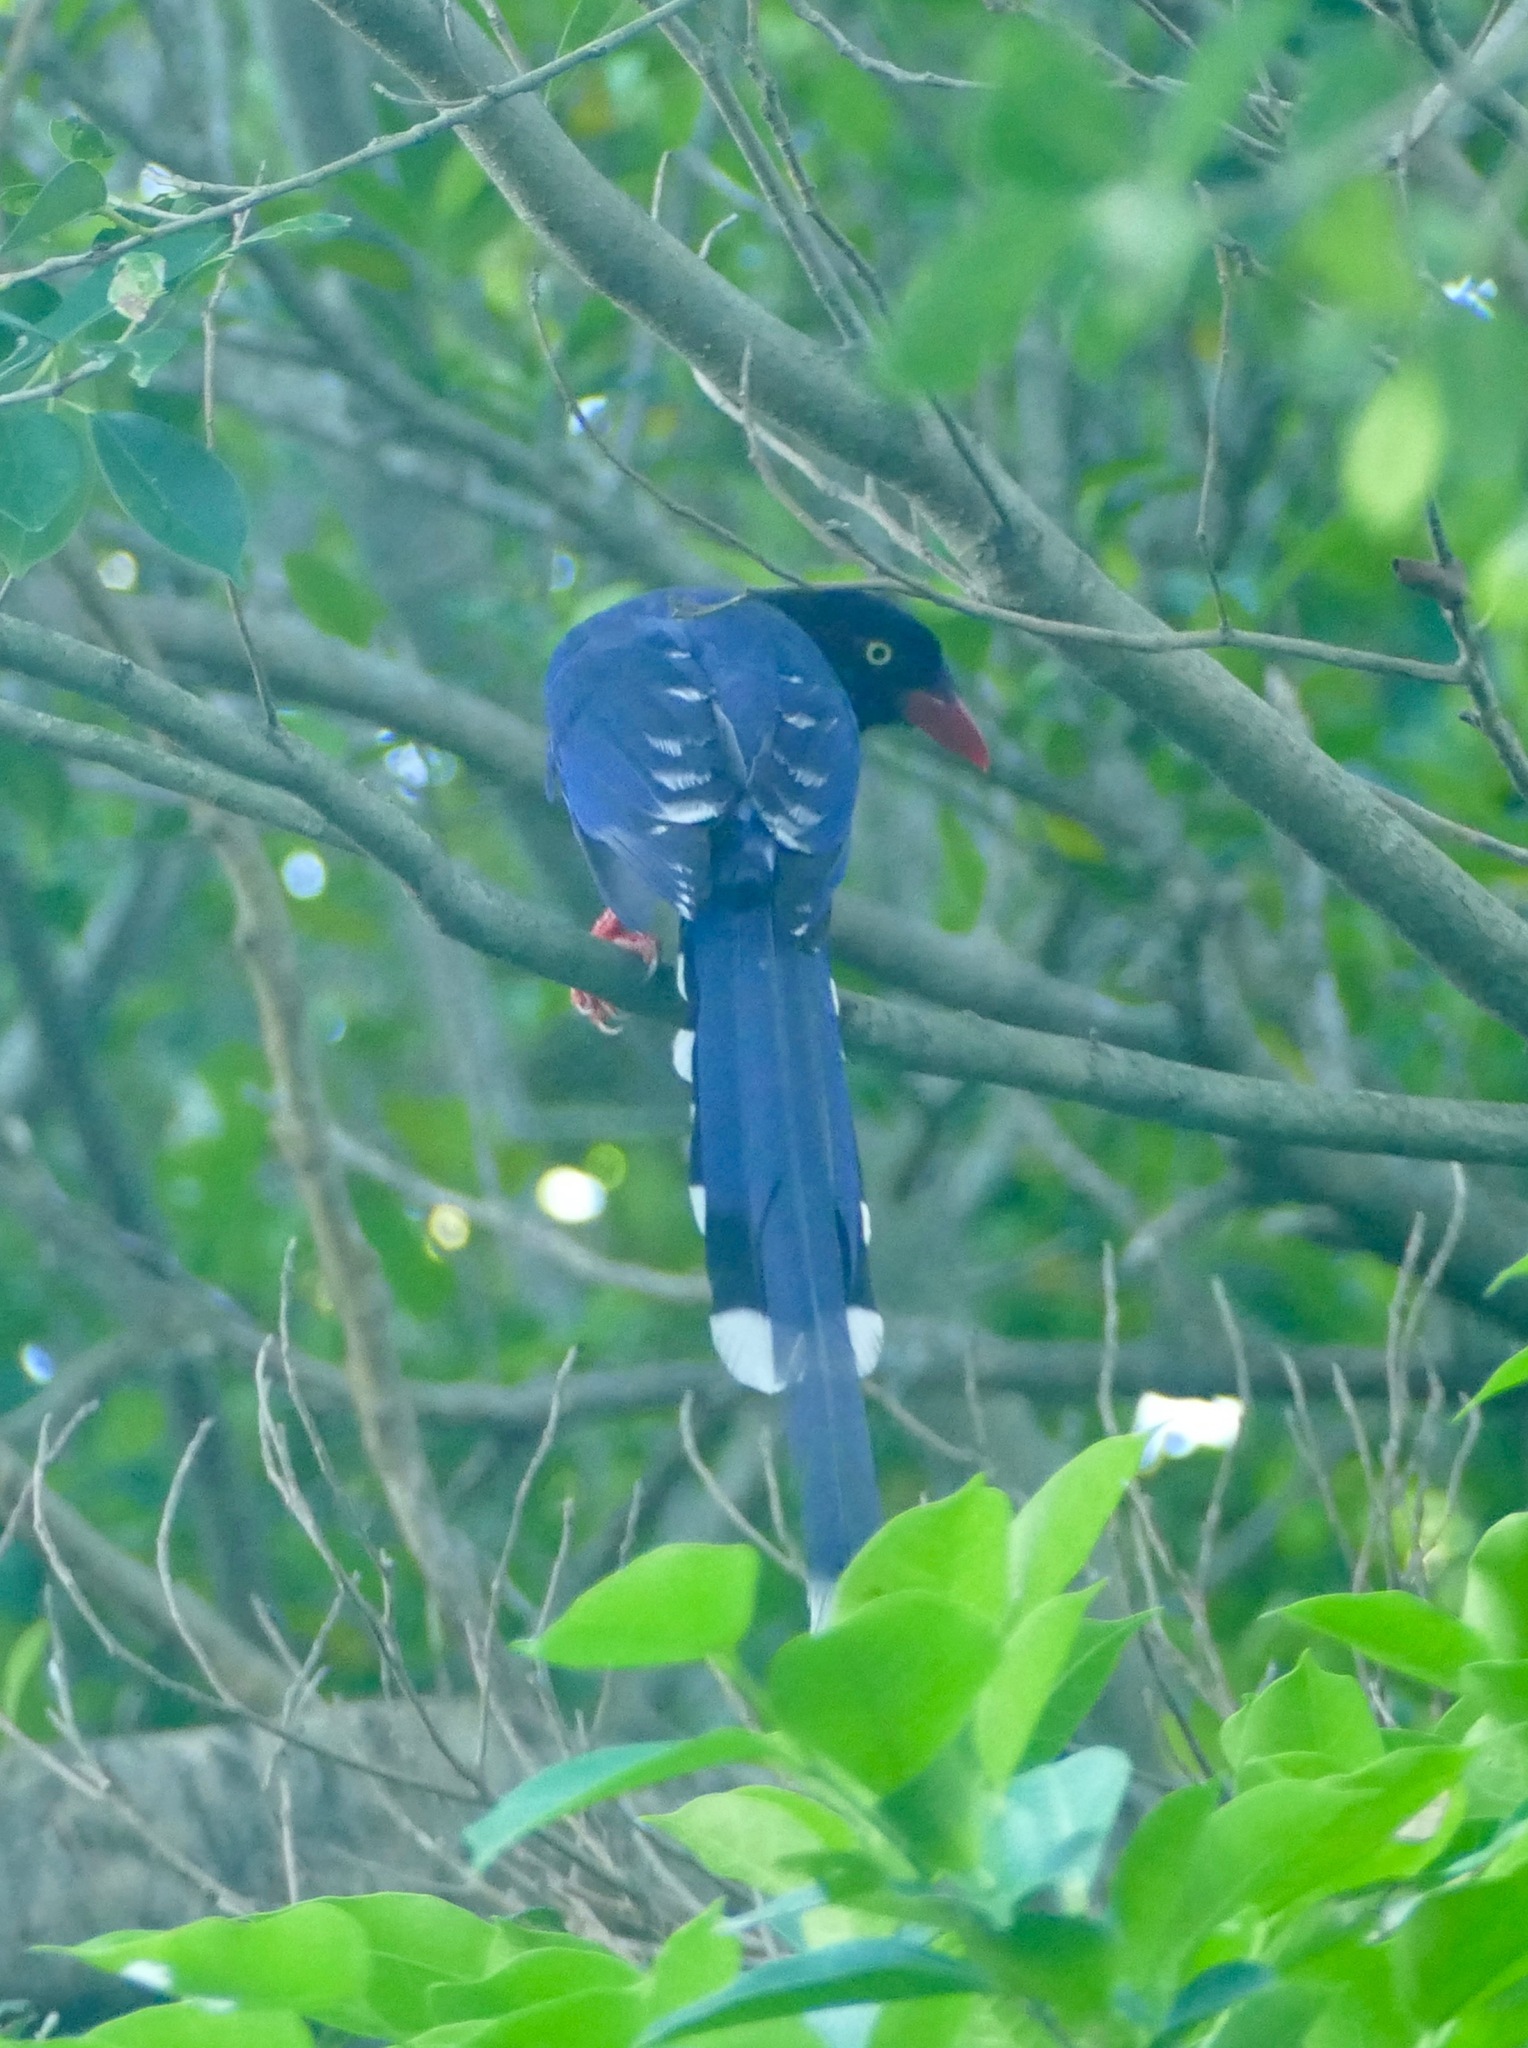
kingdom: Animalia
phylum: Chordata
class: Aves
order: Passeriformes
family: Corvidae
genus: Urocissa
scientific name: Urocissa caerulea
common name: Taiwan blue magpie
